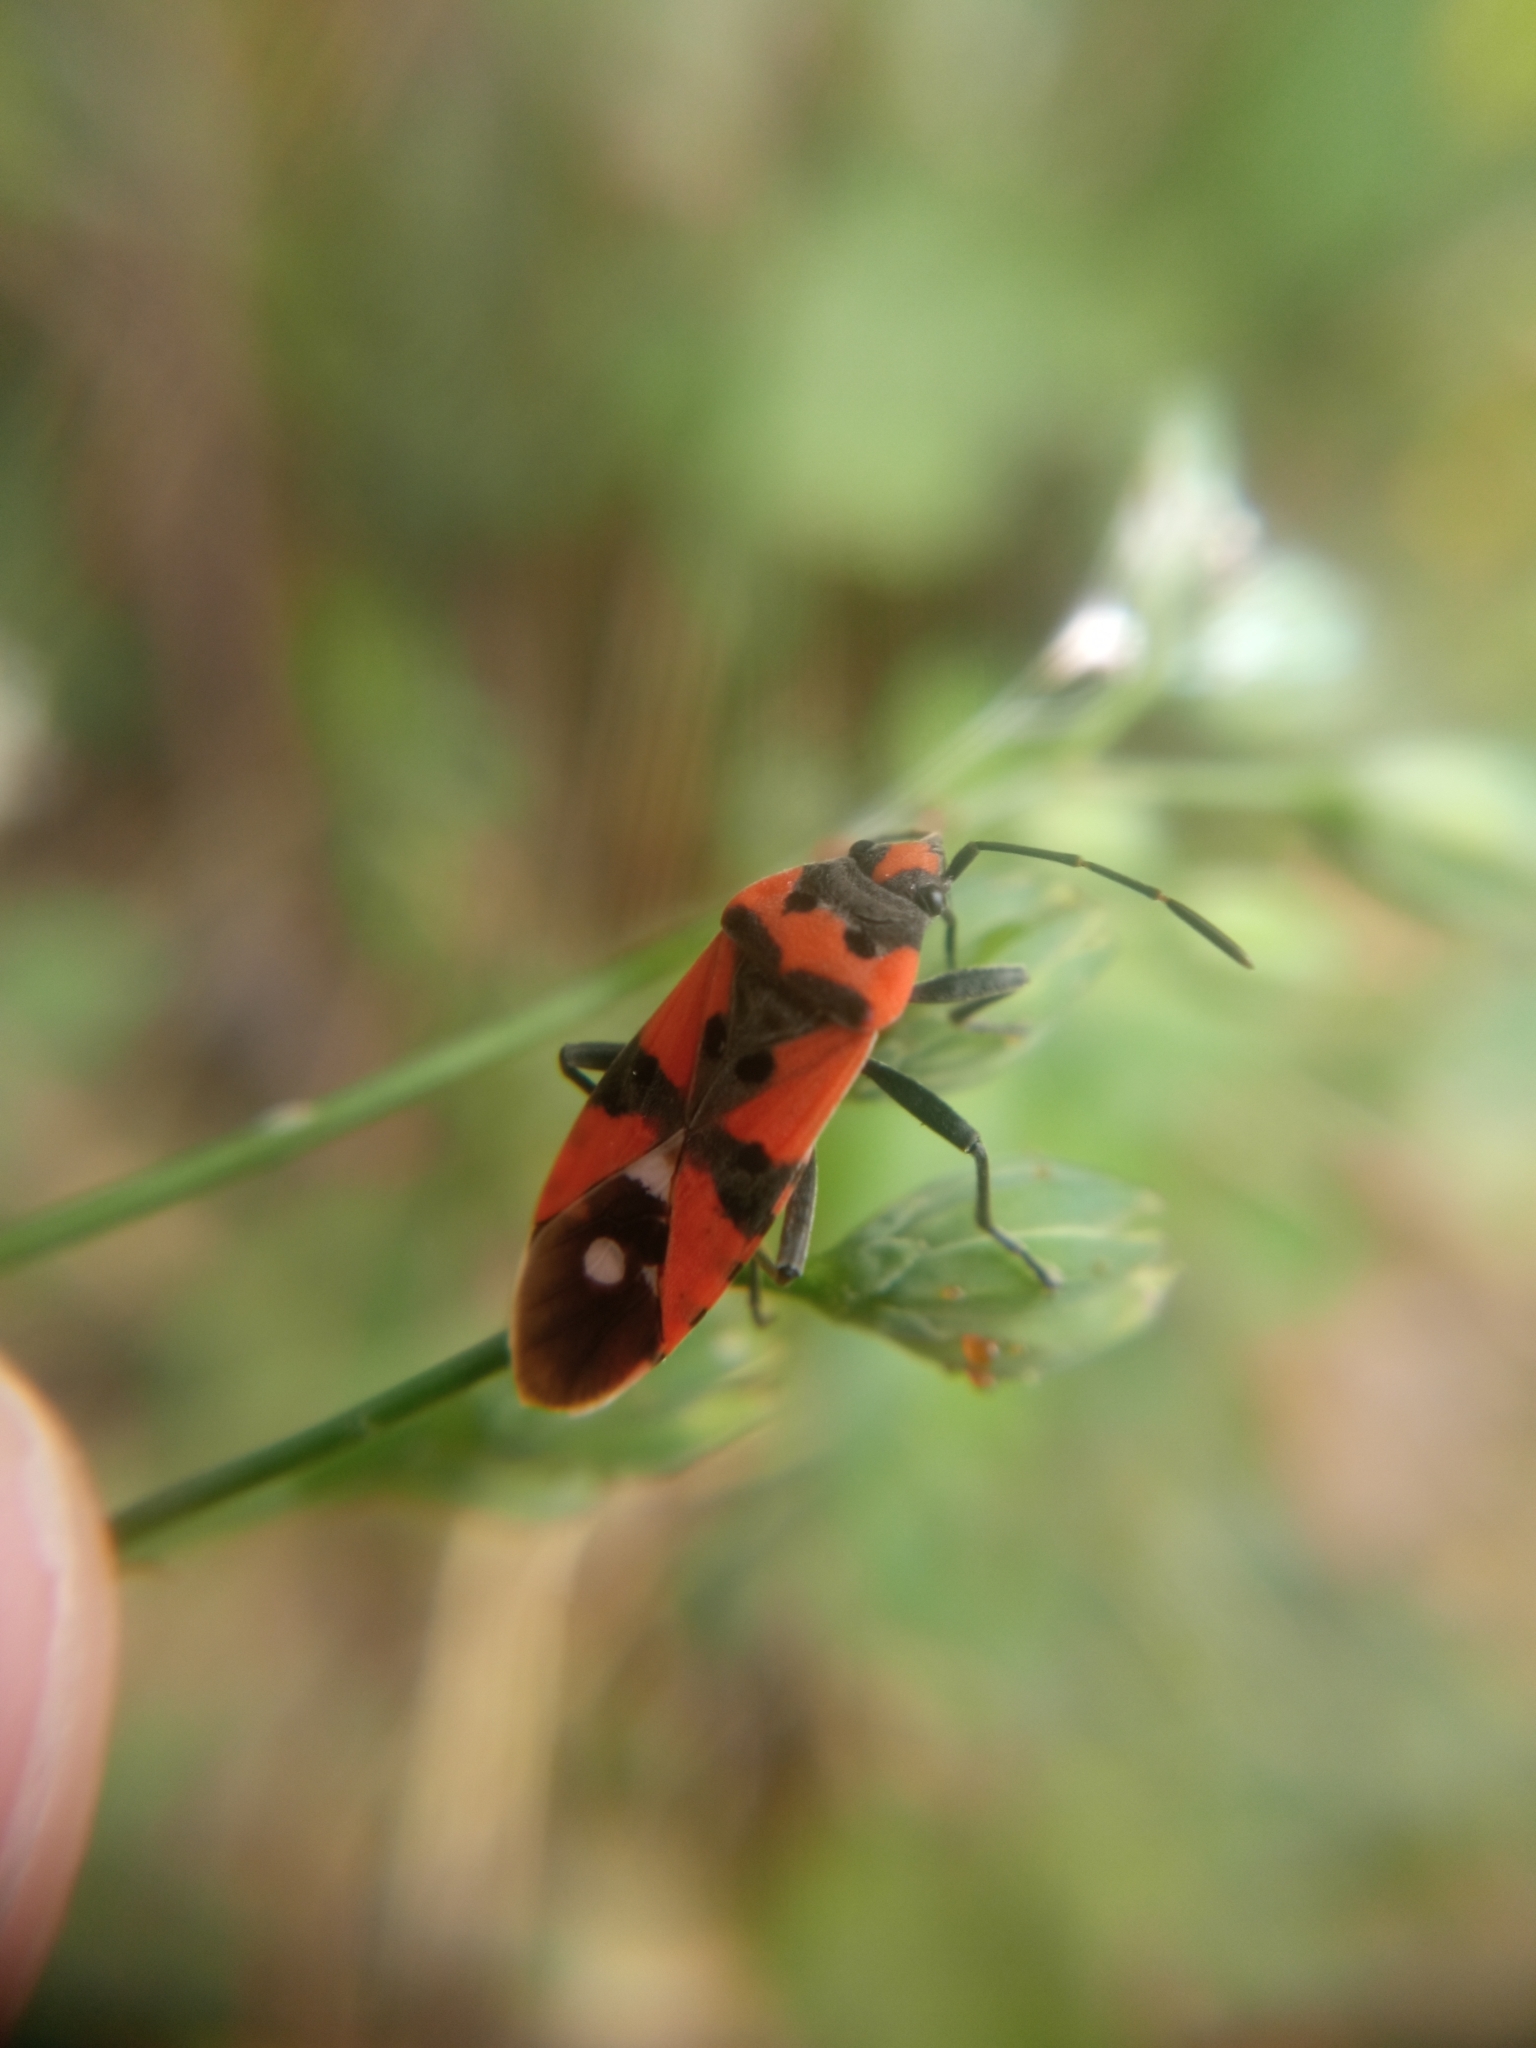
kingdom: Animalia
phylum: Arthropoda
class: Insecta
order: Hemiptera
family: Lygaeidae
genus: Lygaeus
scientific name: Lygaeus equestris
